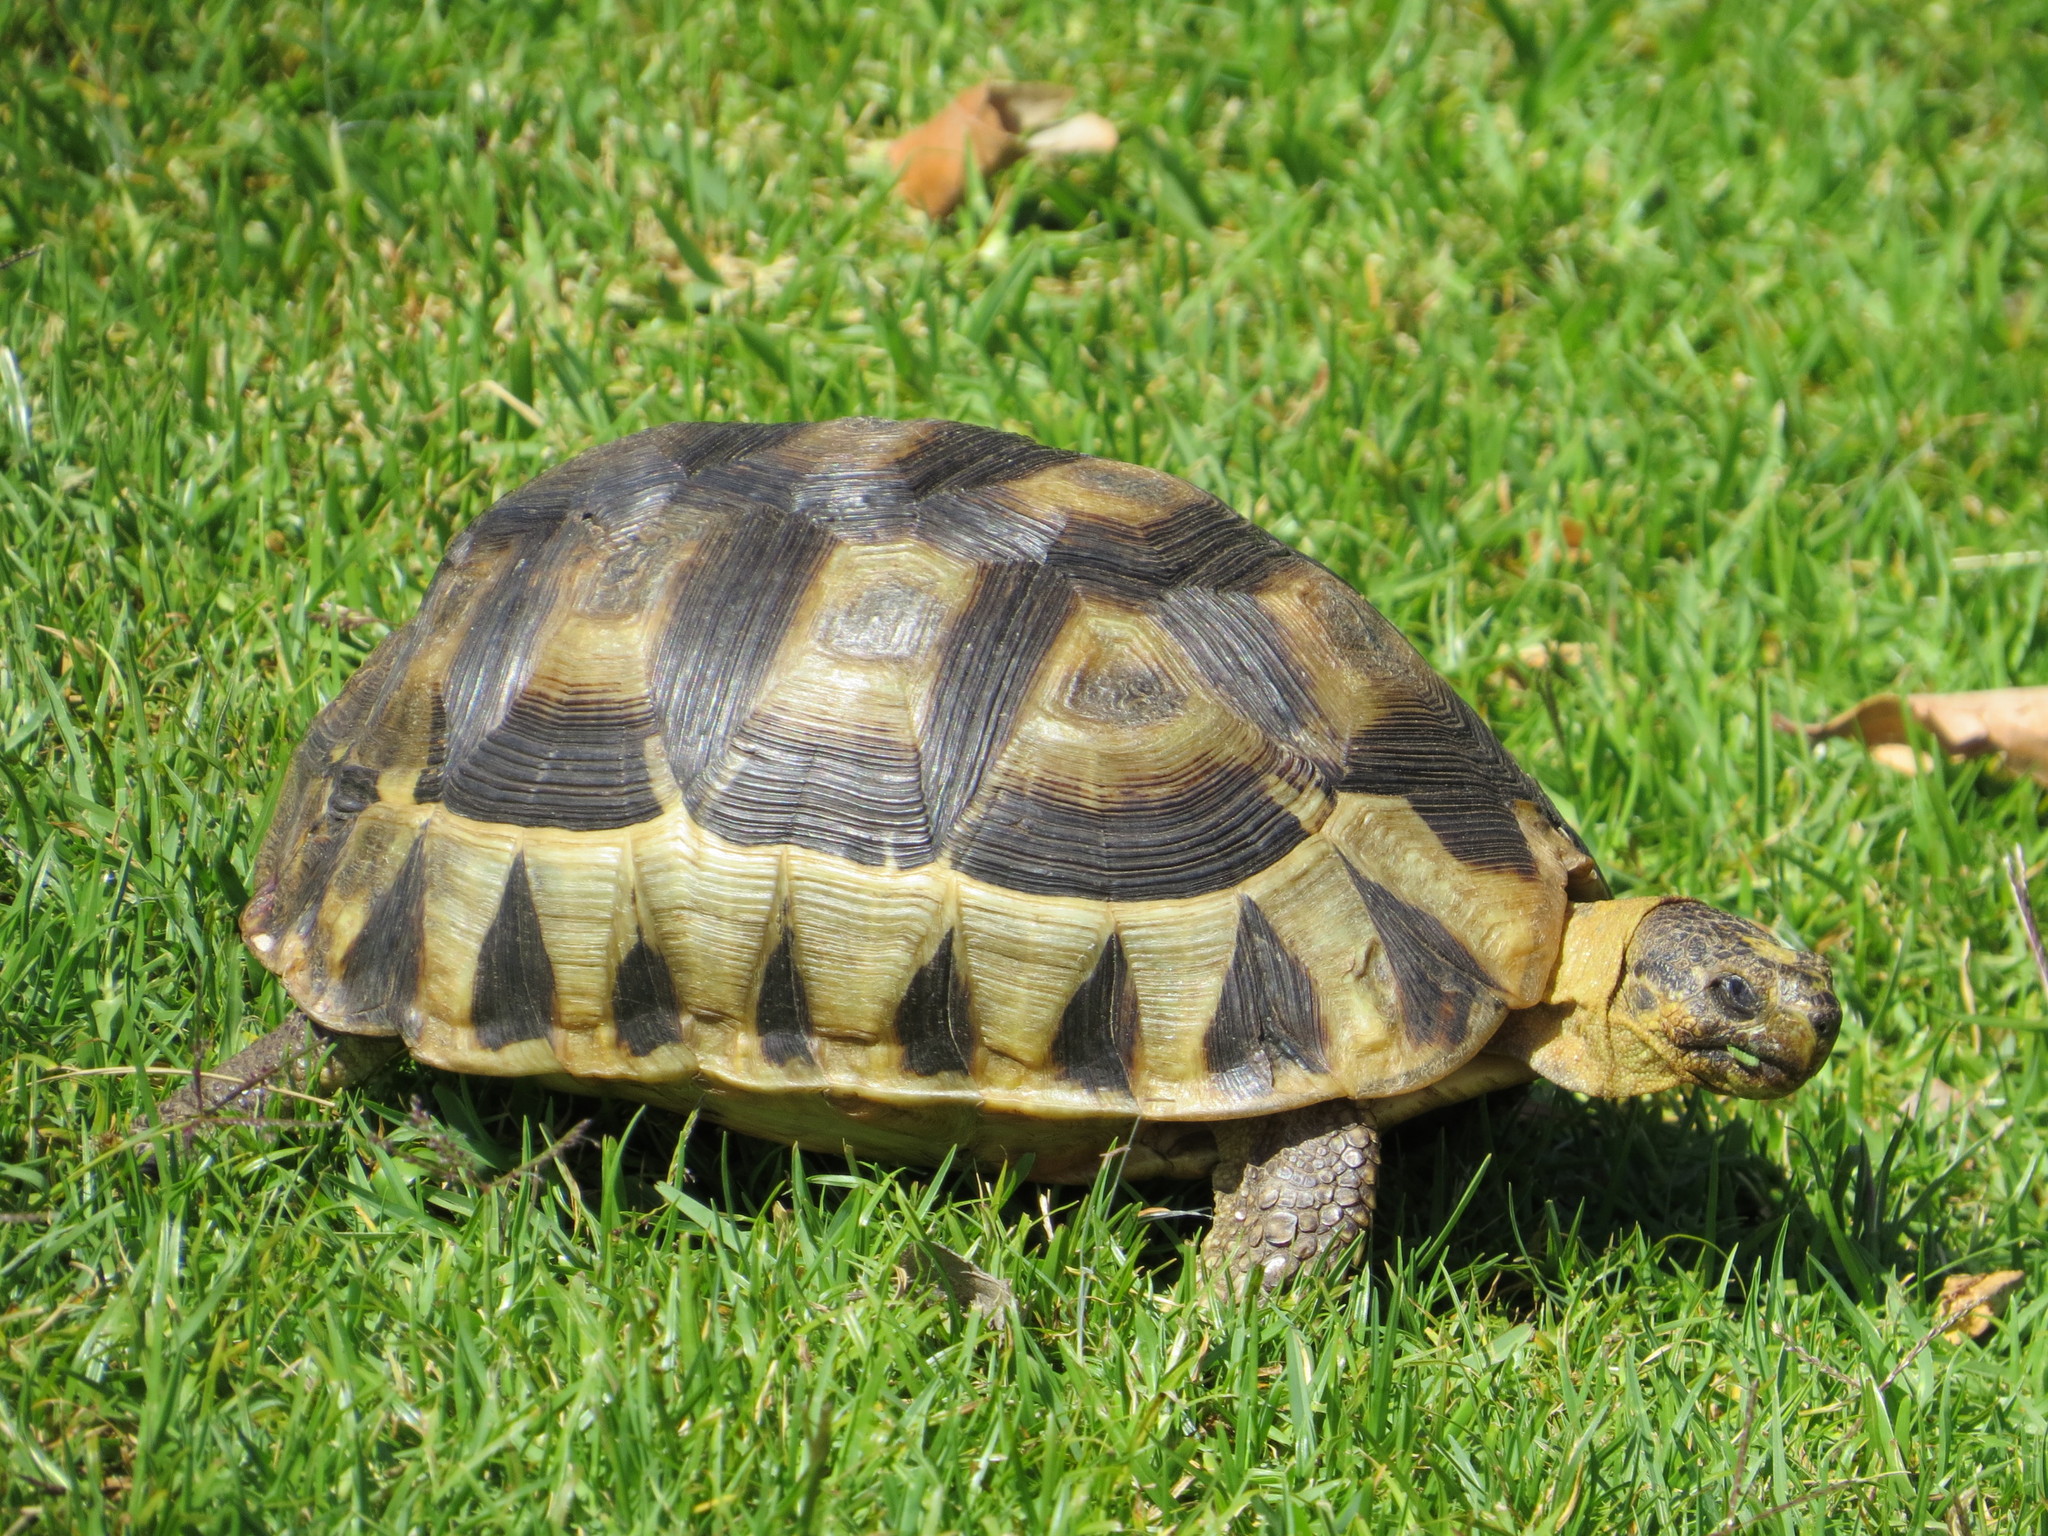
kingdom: Animalia
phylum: Chordata
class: Testudines
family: Testudinidae
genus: Chersina
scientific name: Chersina angulata
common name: South african bowsprit tortoise
